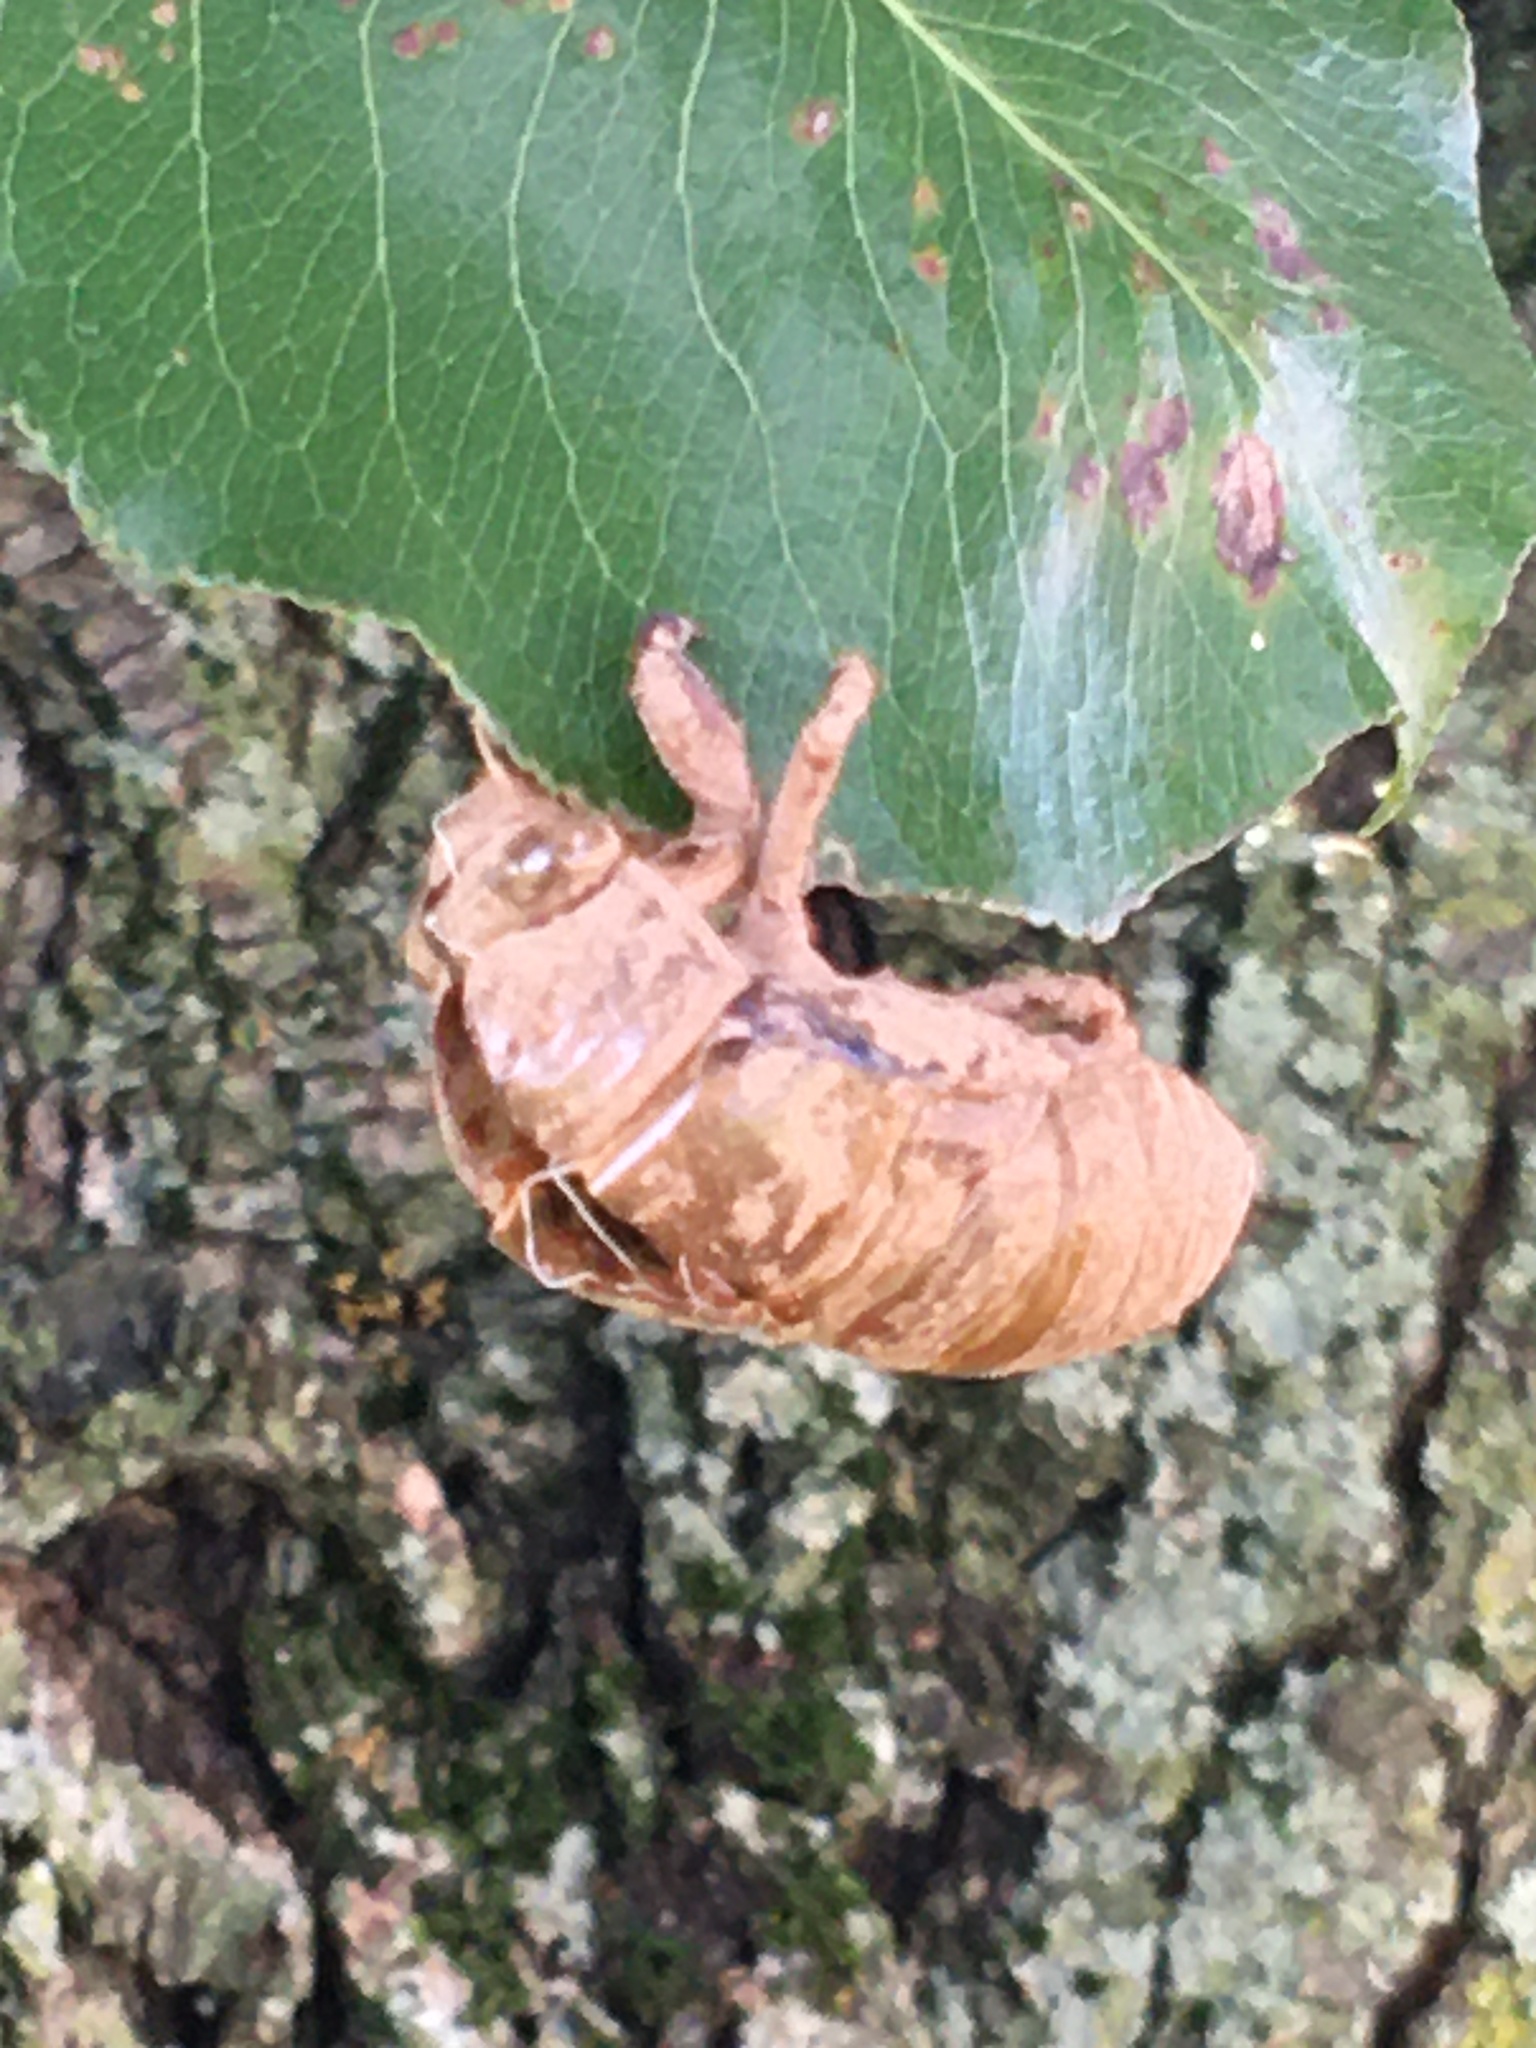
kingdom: Animalia
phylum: Arthropoda
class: Insecta
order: Hemiptera
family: Cicadidae
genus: Neotibicen
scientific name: Neotibicen tibicen
